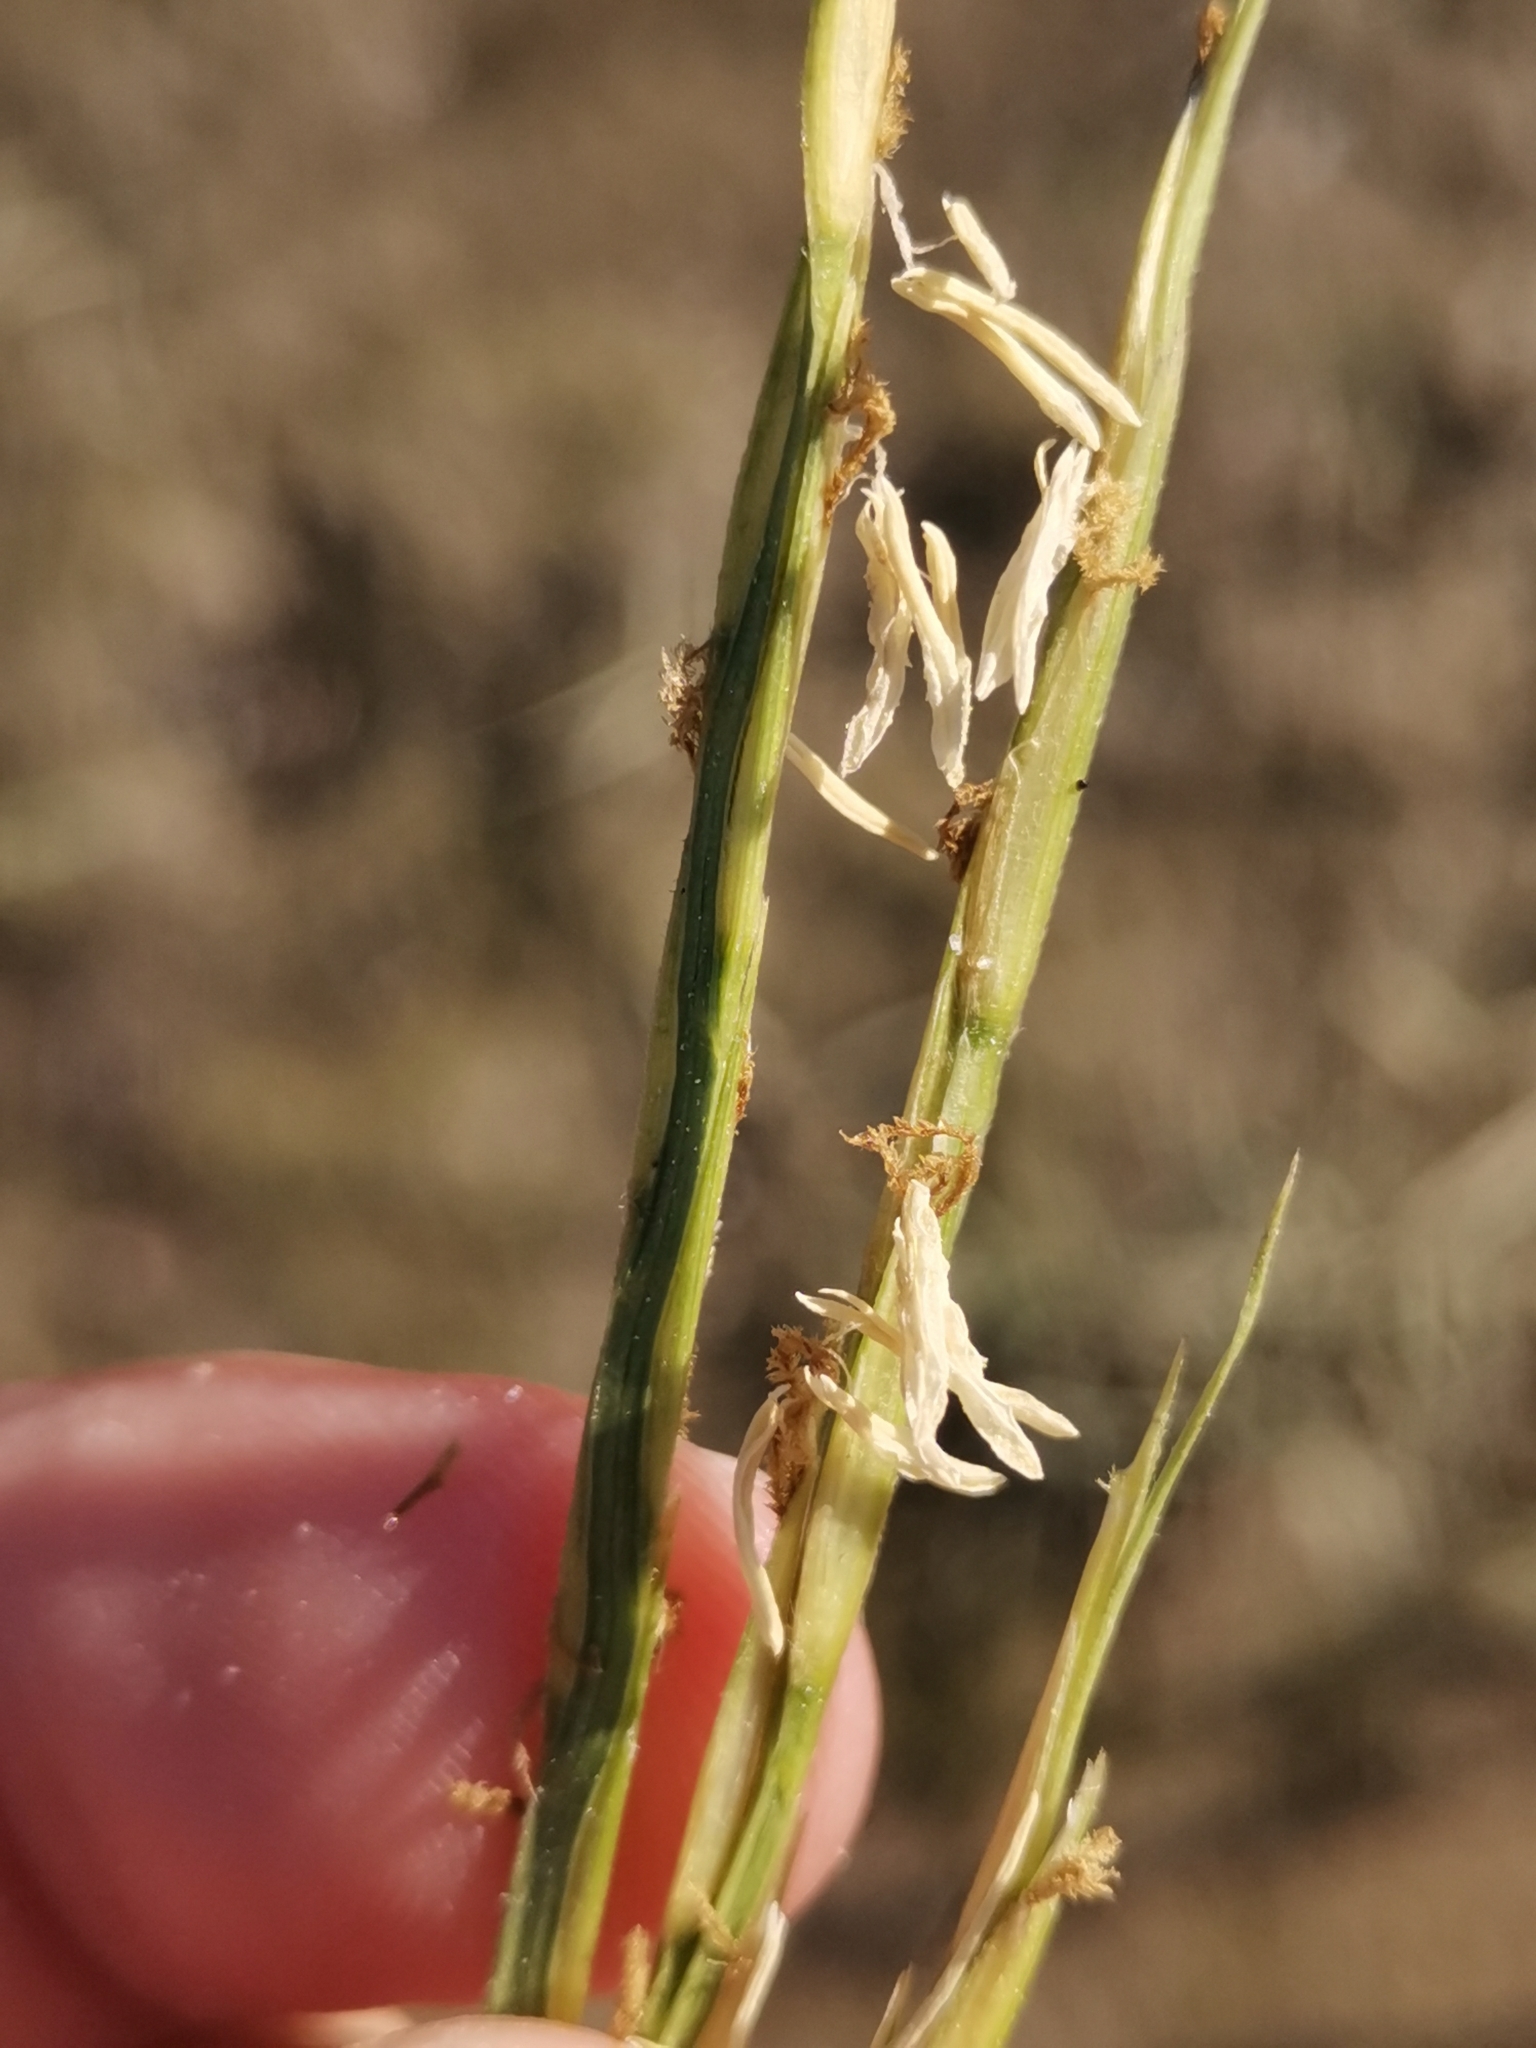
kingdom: Plantae
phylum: Tracheophyta
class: Liliopsida
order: Poales
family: Poaceae
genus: Sporobolus
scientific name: Sporobolus maritimus
